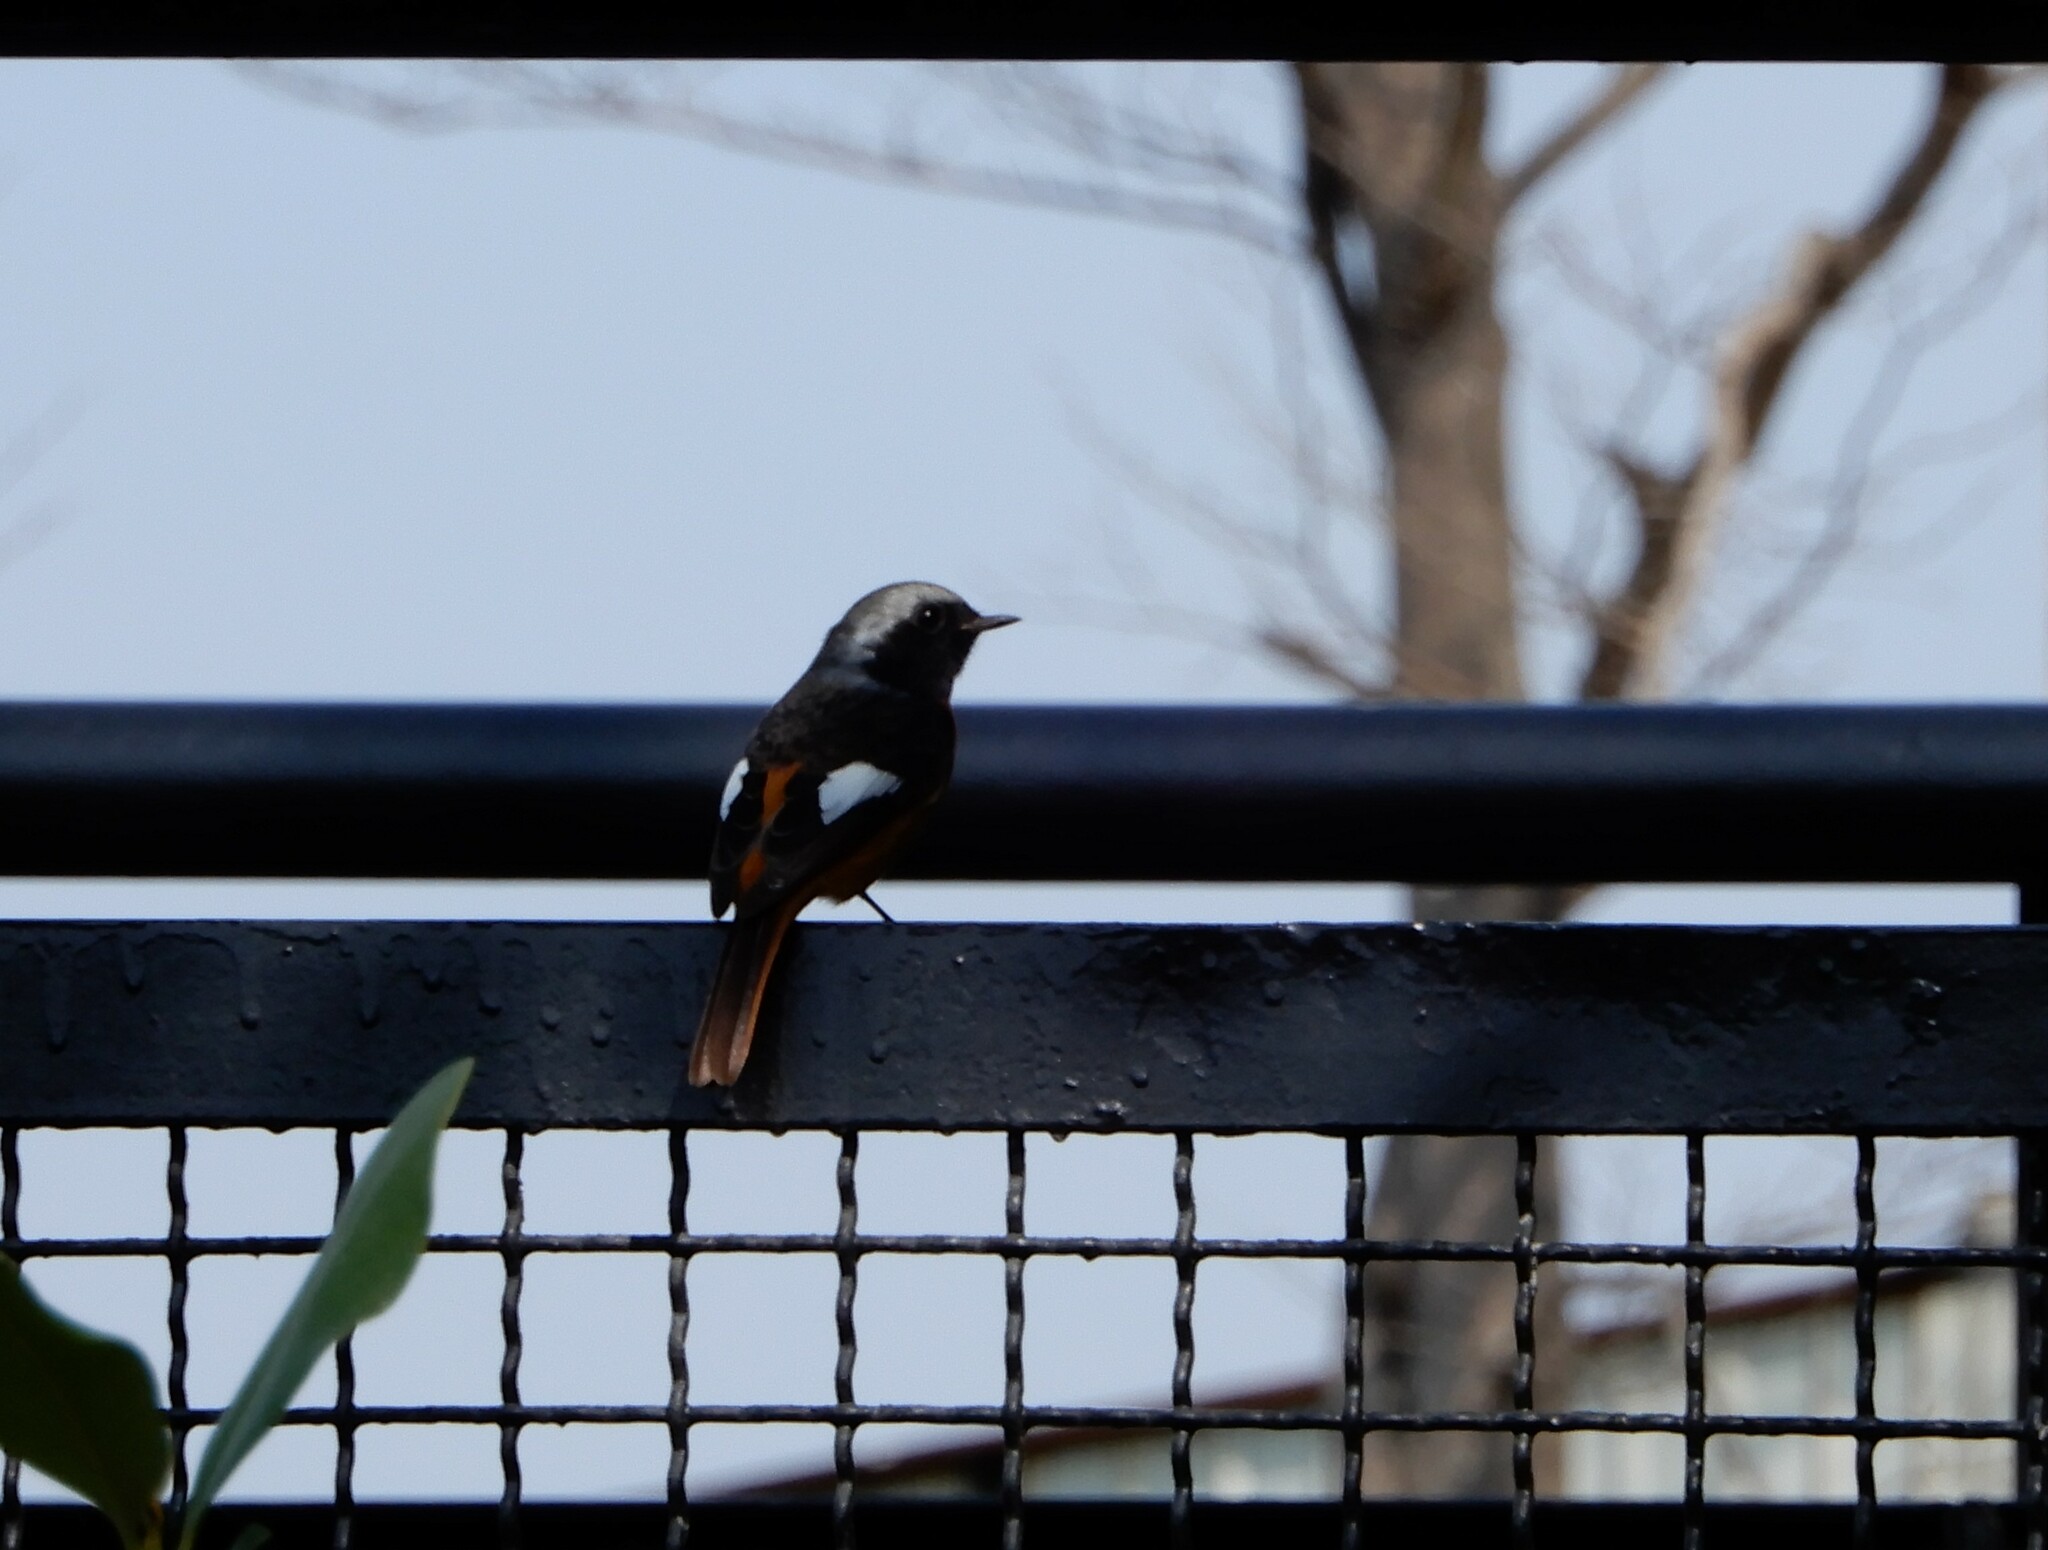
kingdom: Animalia
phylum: Chordata
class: Aves
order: Passeriformes
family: Muscicapidae
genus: Phoenicurus
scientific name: Phoenicurus auroreus
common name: Daurian redstart
